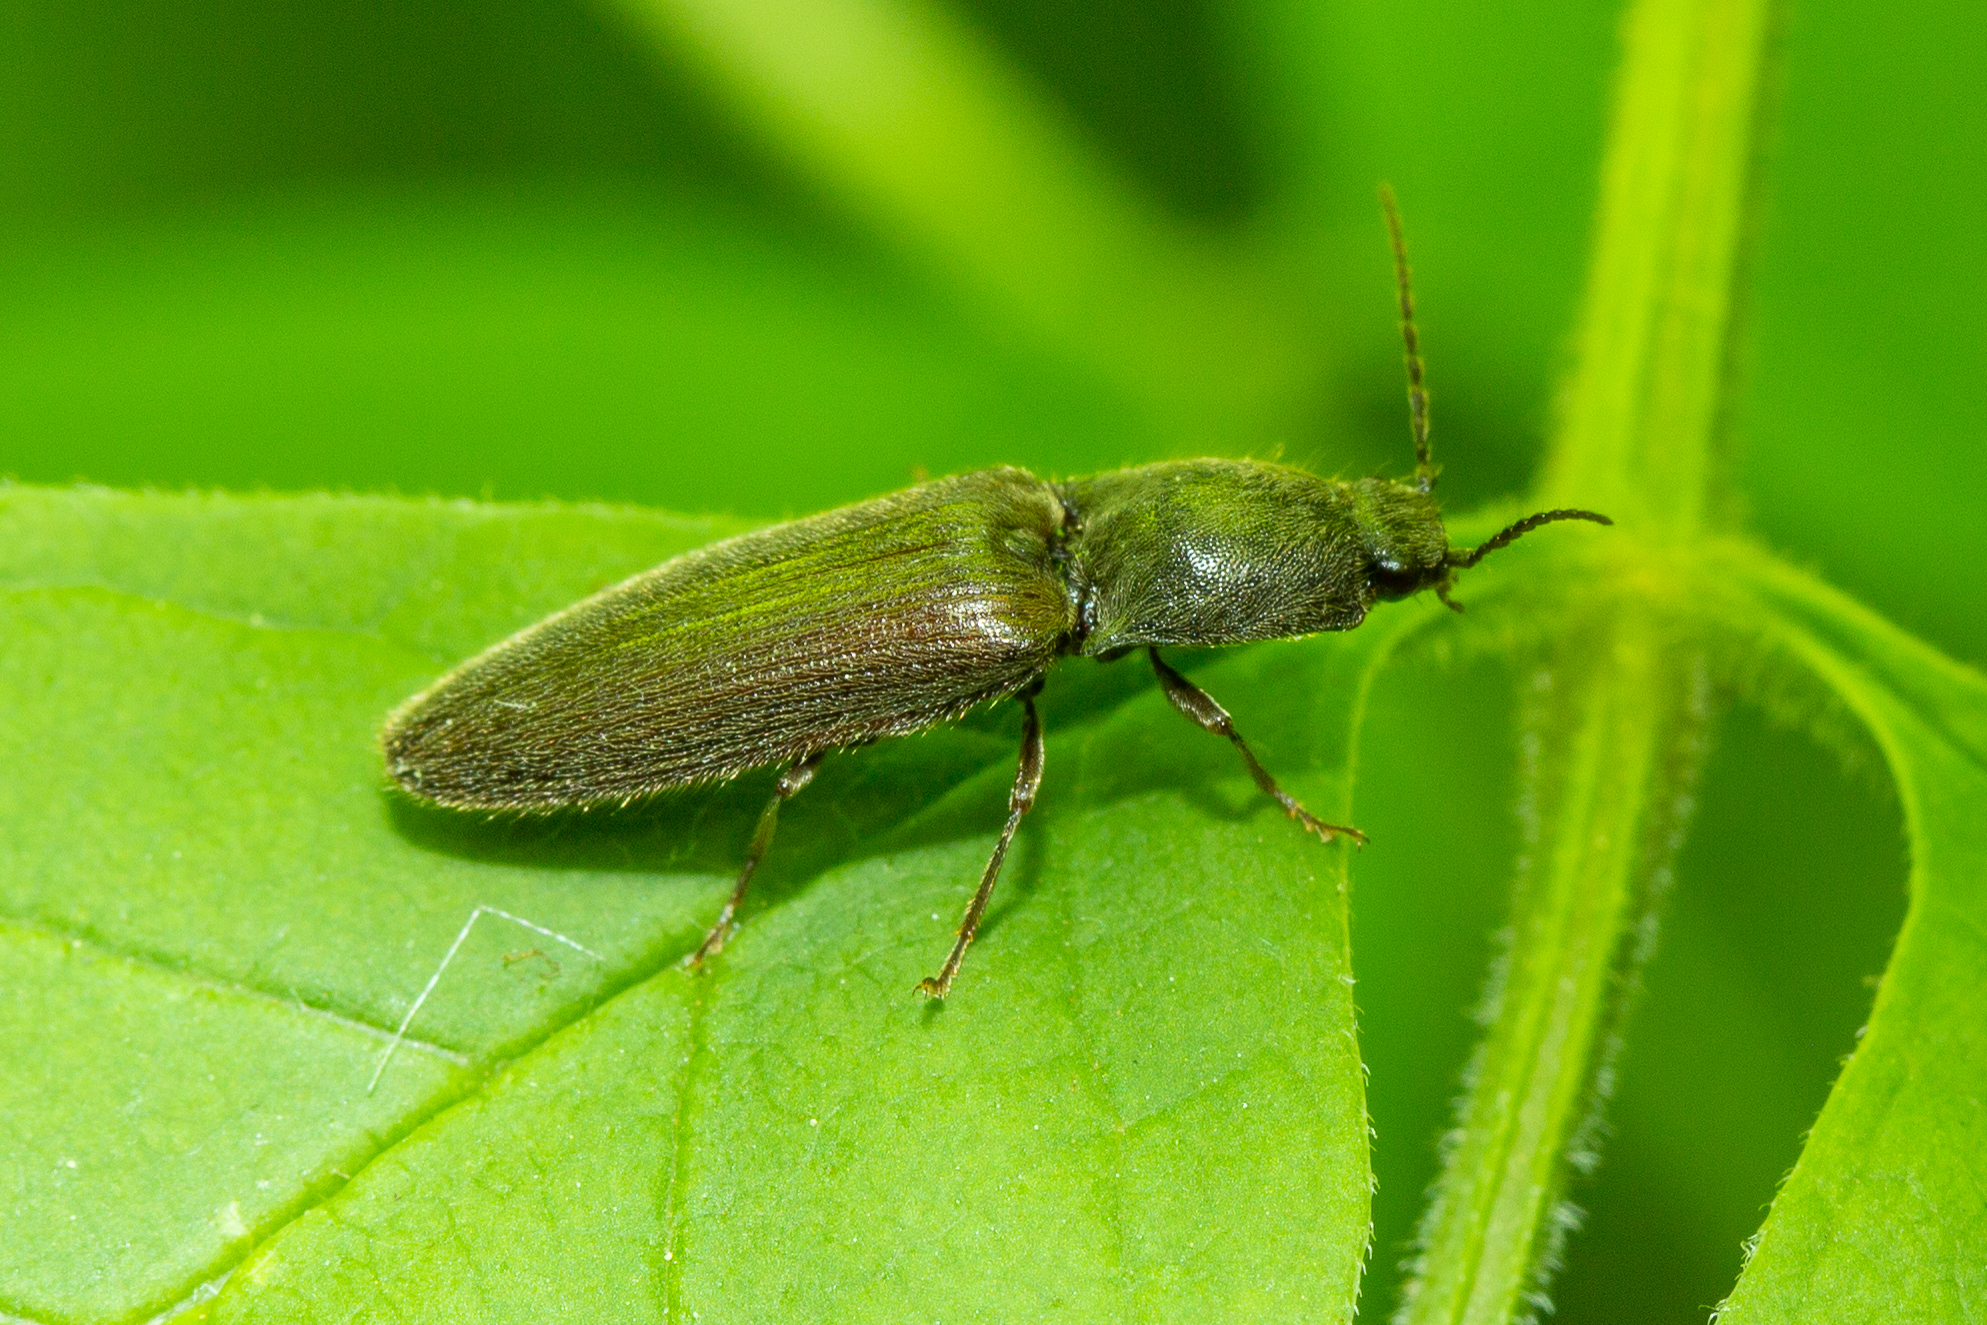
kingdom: Animalia
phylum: Arthropoda
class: Insecta
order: Coleoptera
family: Elateridae
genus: Athous
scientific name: Athous haemorrhoidalis
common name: Red-brown click beetle
